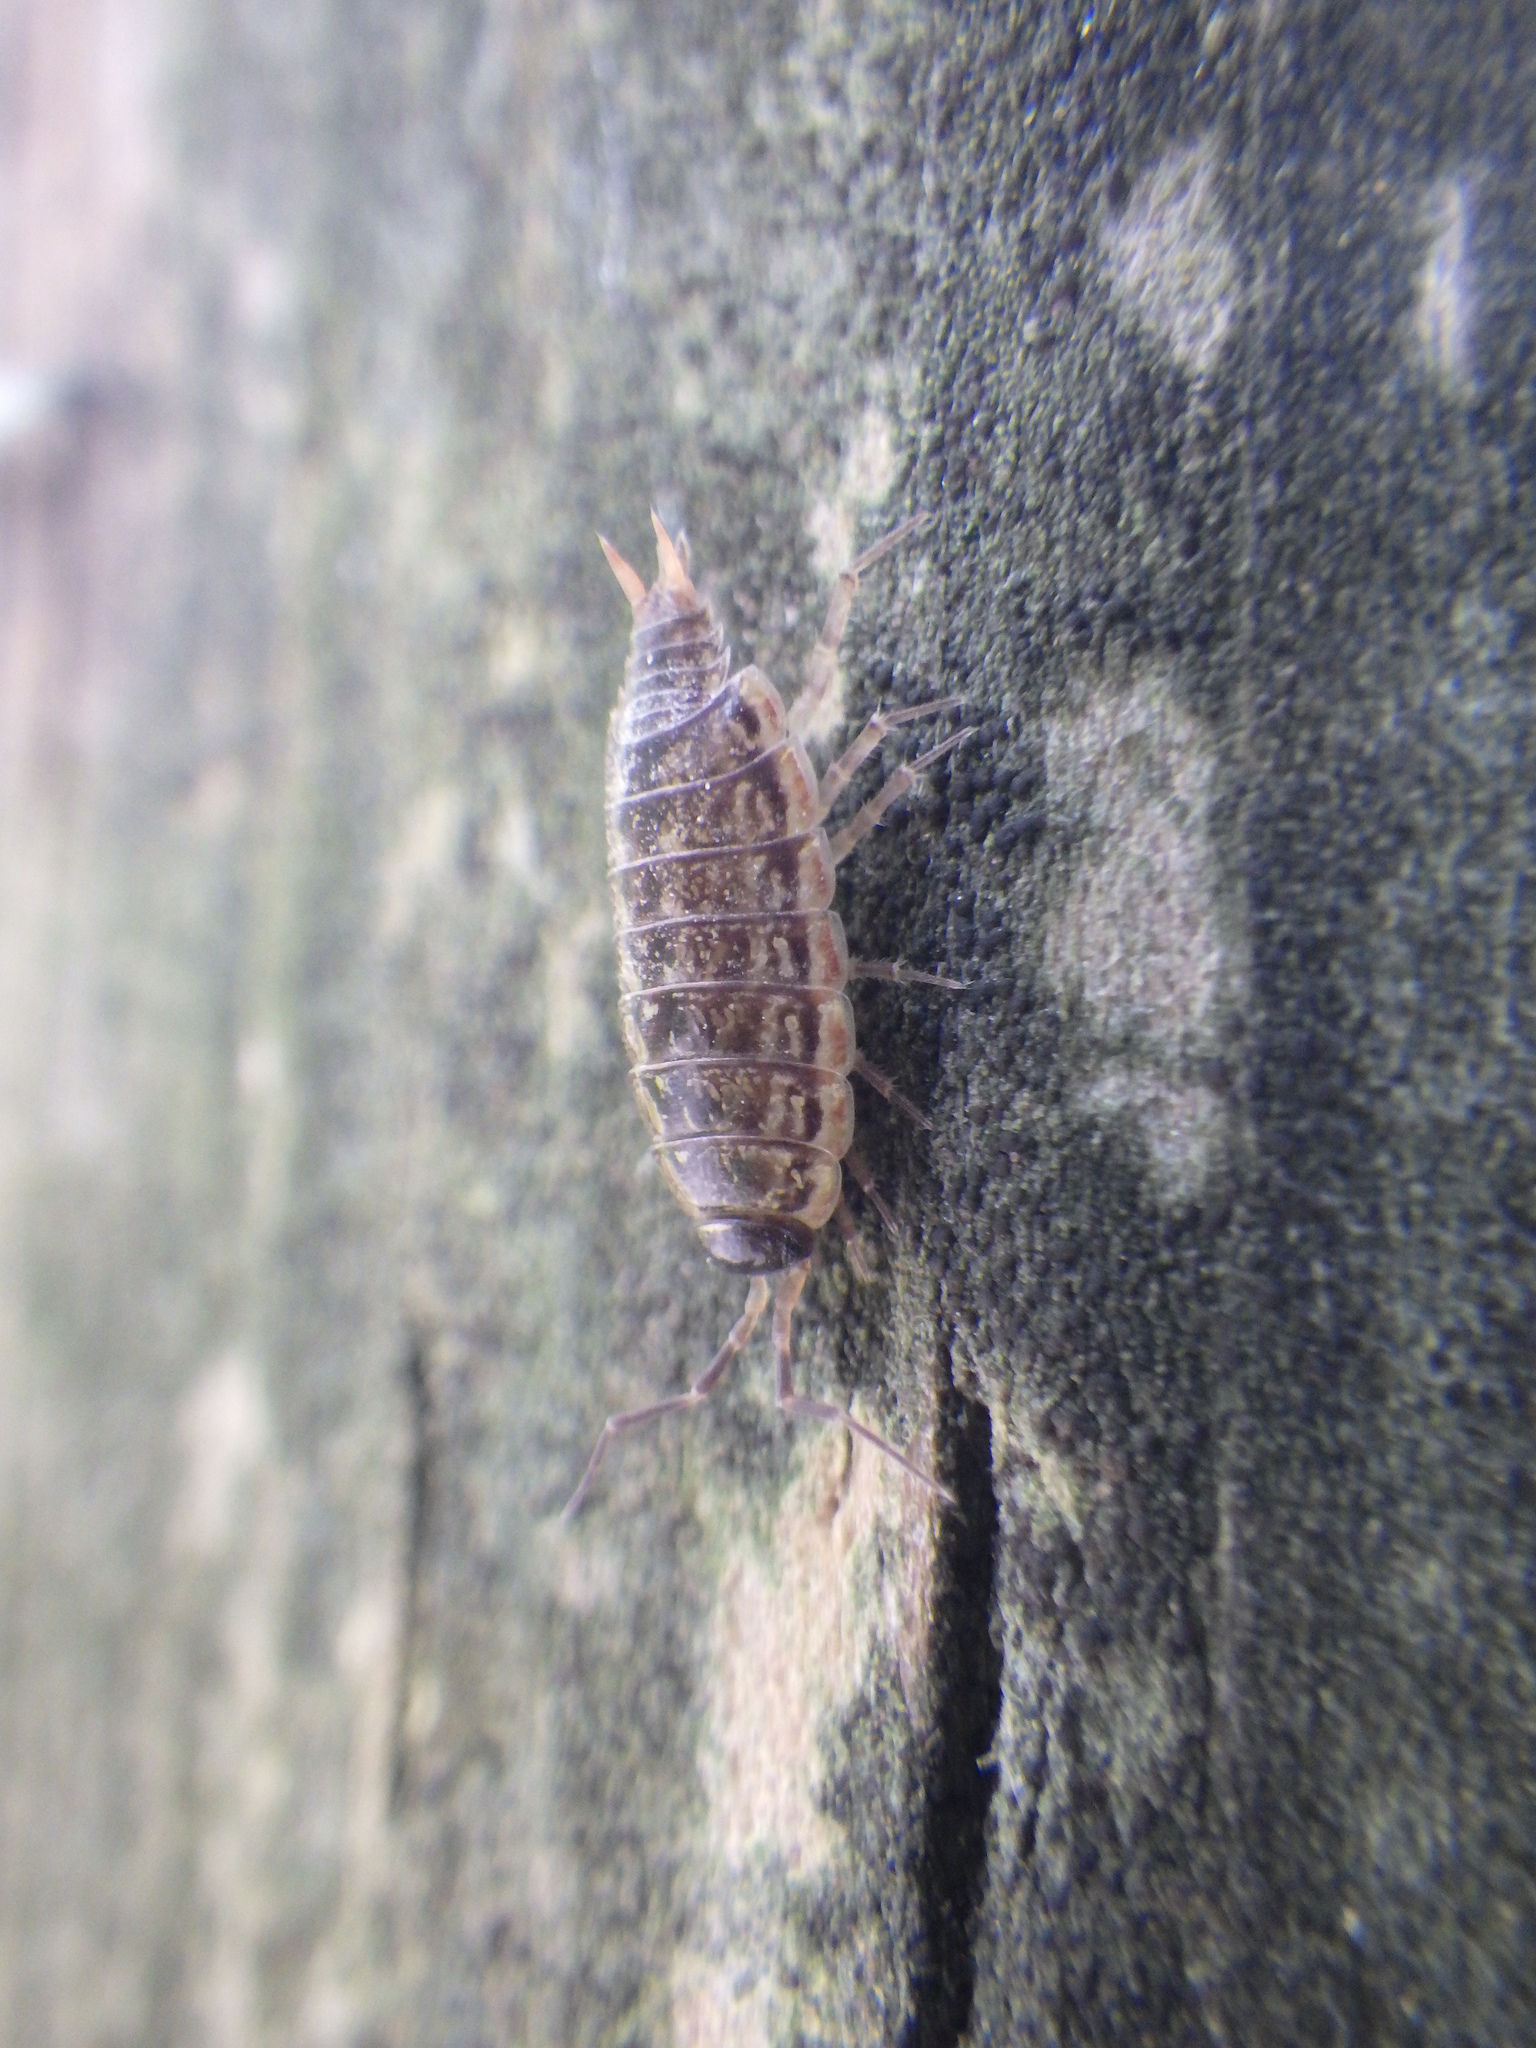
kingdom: Animalia
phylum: Arthropoda
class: Malacostraca
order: Isopoda
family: Philosciidae
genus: Philoscia
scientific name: Philoscia muscorum
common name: Common striped woodlouse
